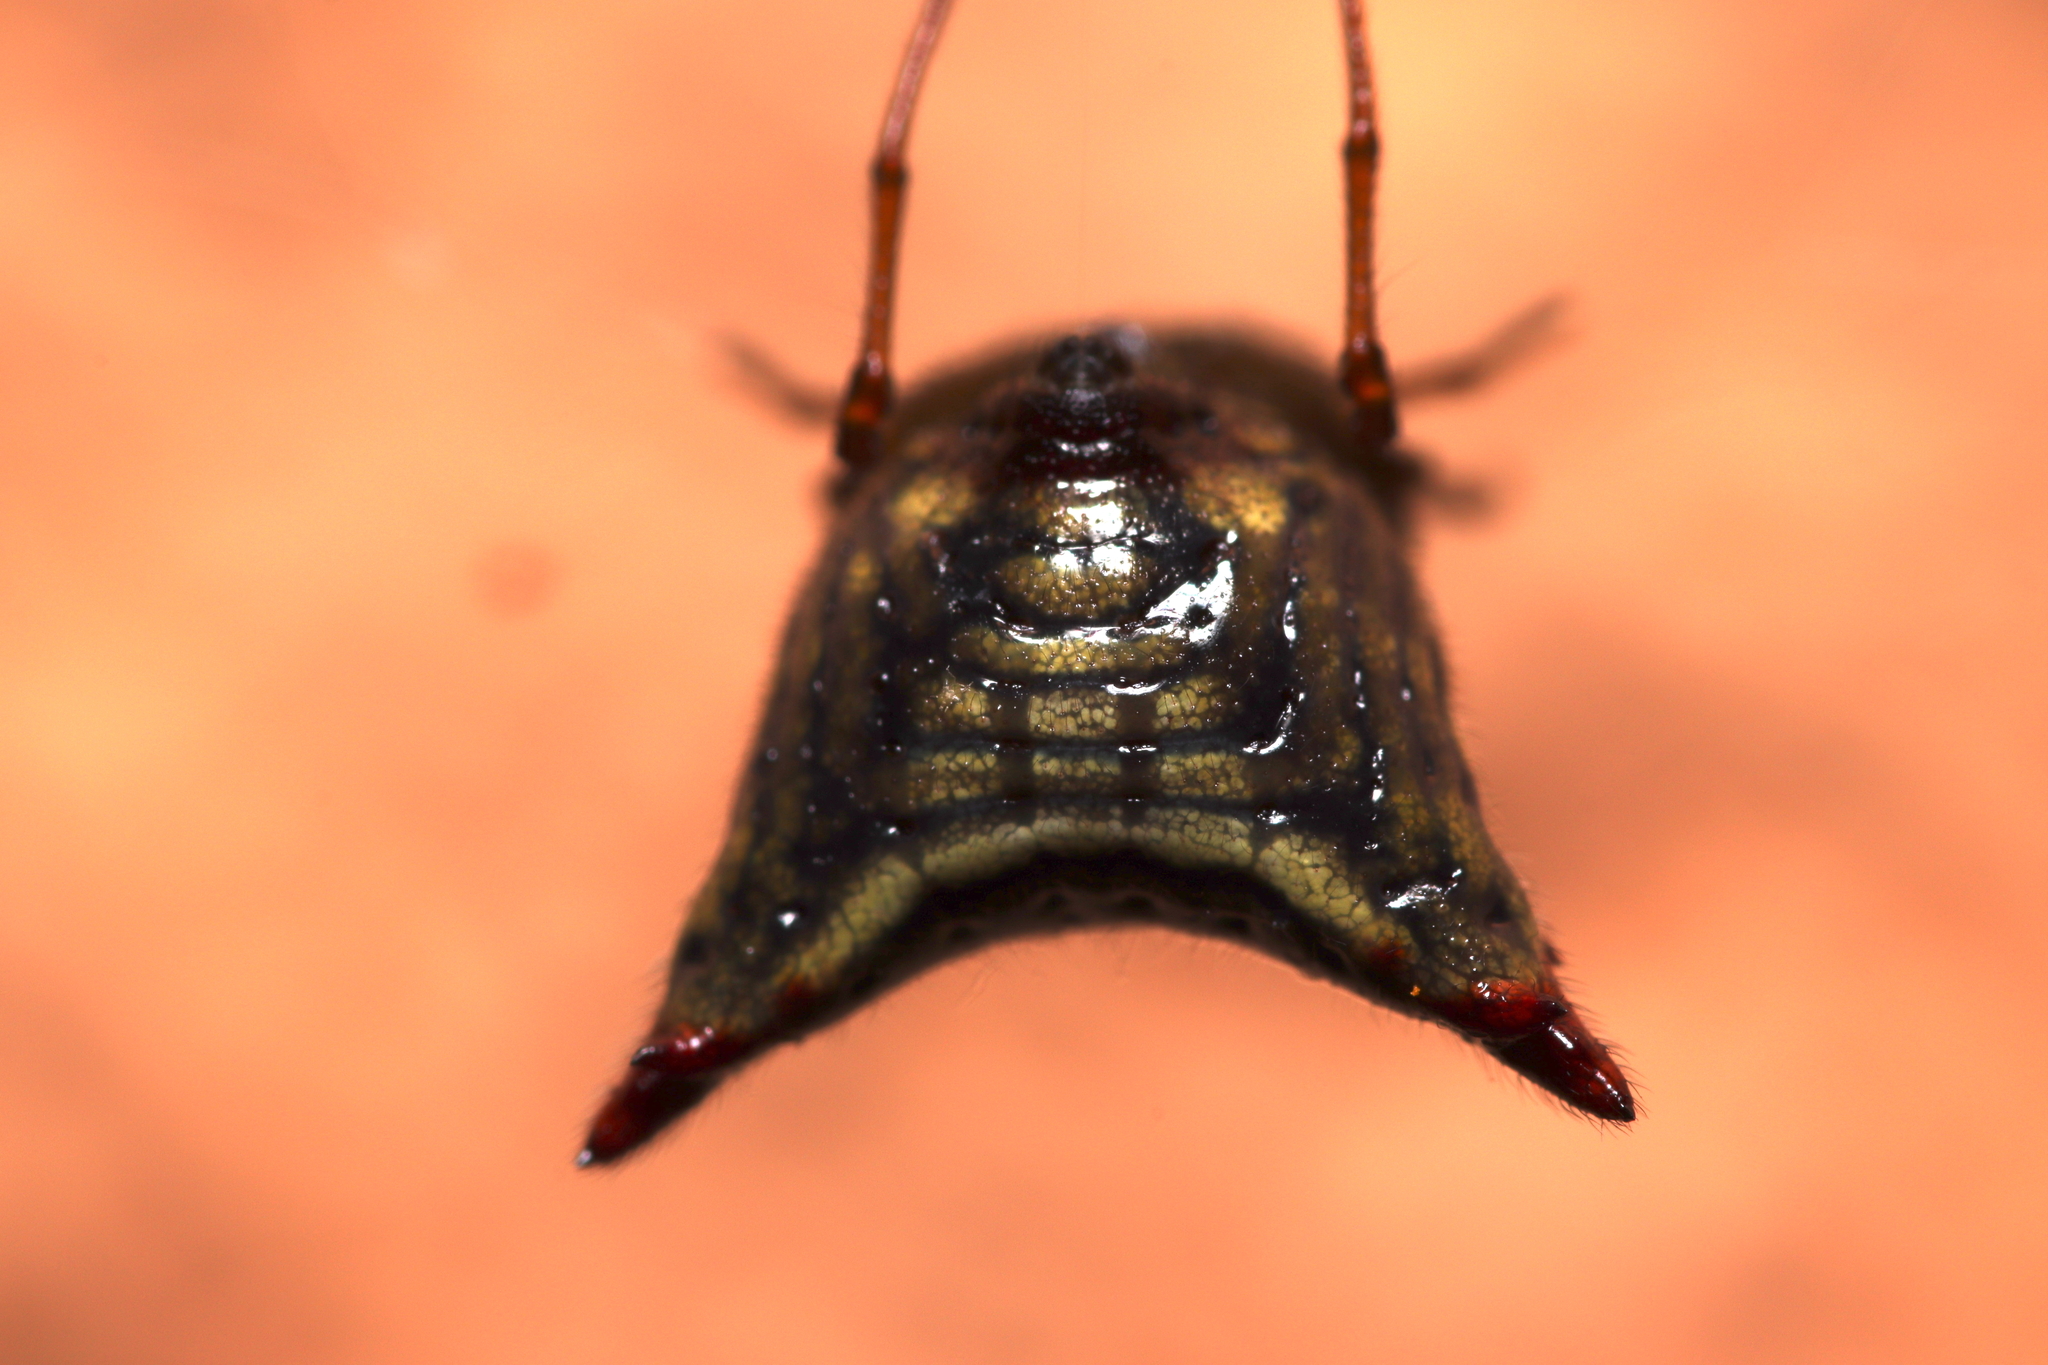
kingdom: Animalia
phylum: Arthropoda
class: Arachnida
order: Araneae
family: Araneidae
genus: Micrathena
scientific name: Micrathena plana
